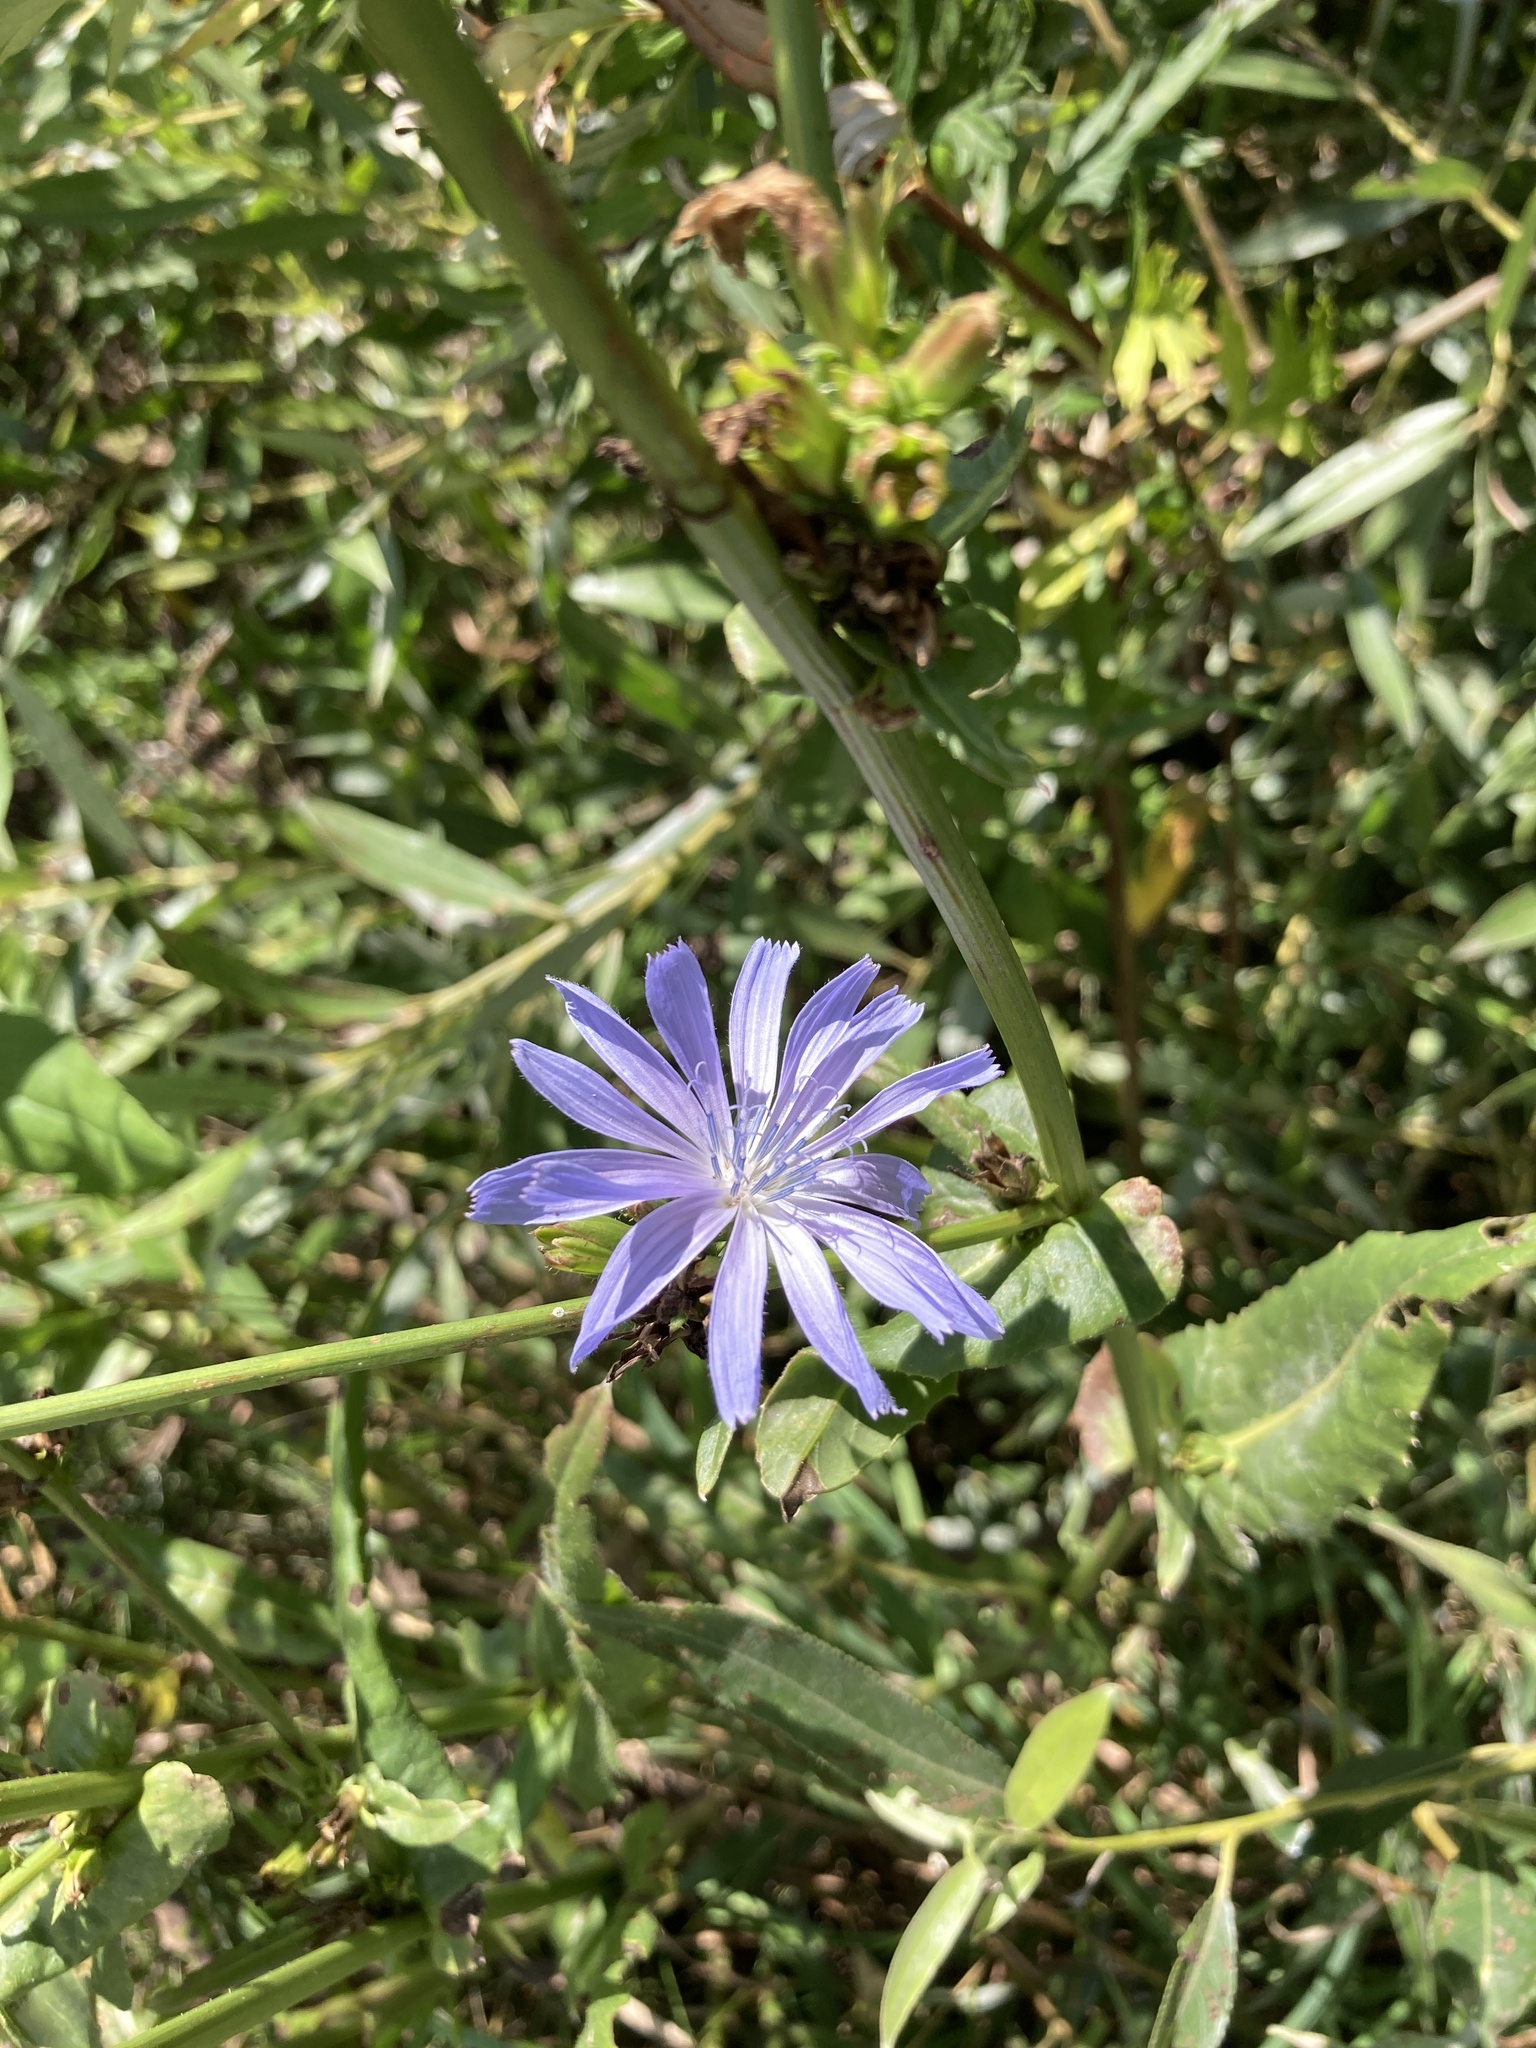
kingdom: Plantae
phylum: Tracheophyta
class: Magnoliopsida
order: Asterales
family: Asteraceae
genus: Cichorium
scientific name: Cichorium intybus
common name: Chicory
